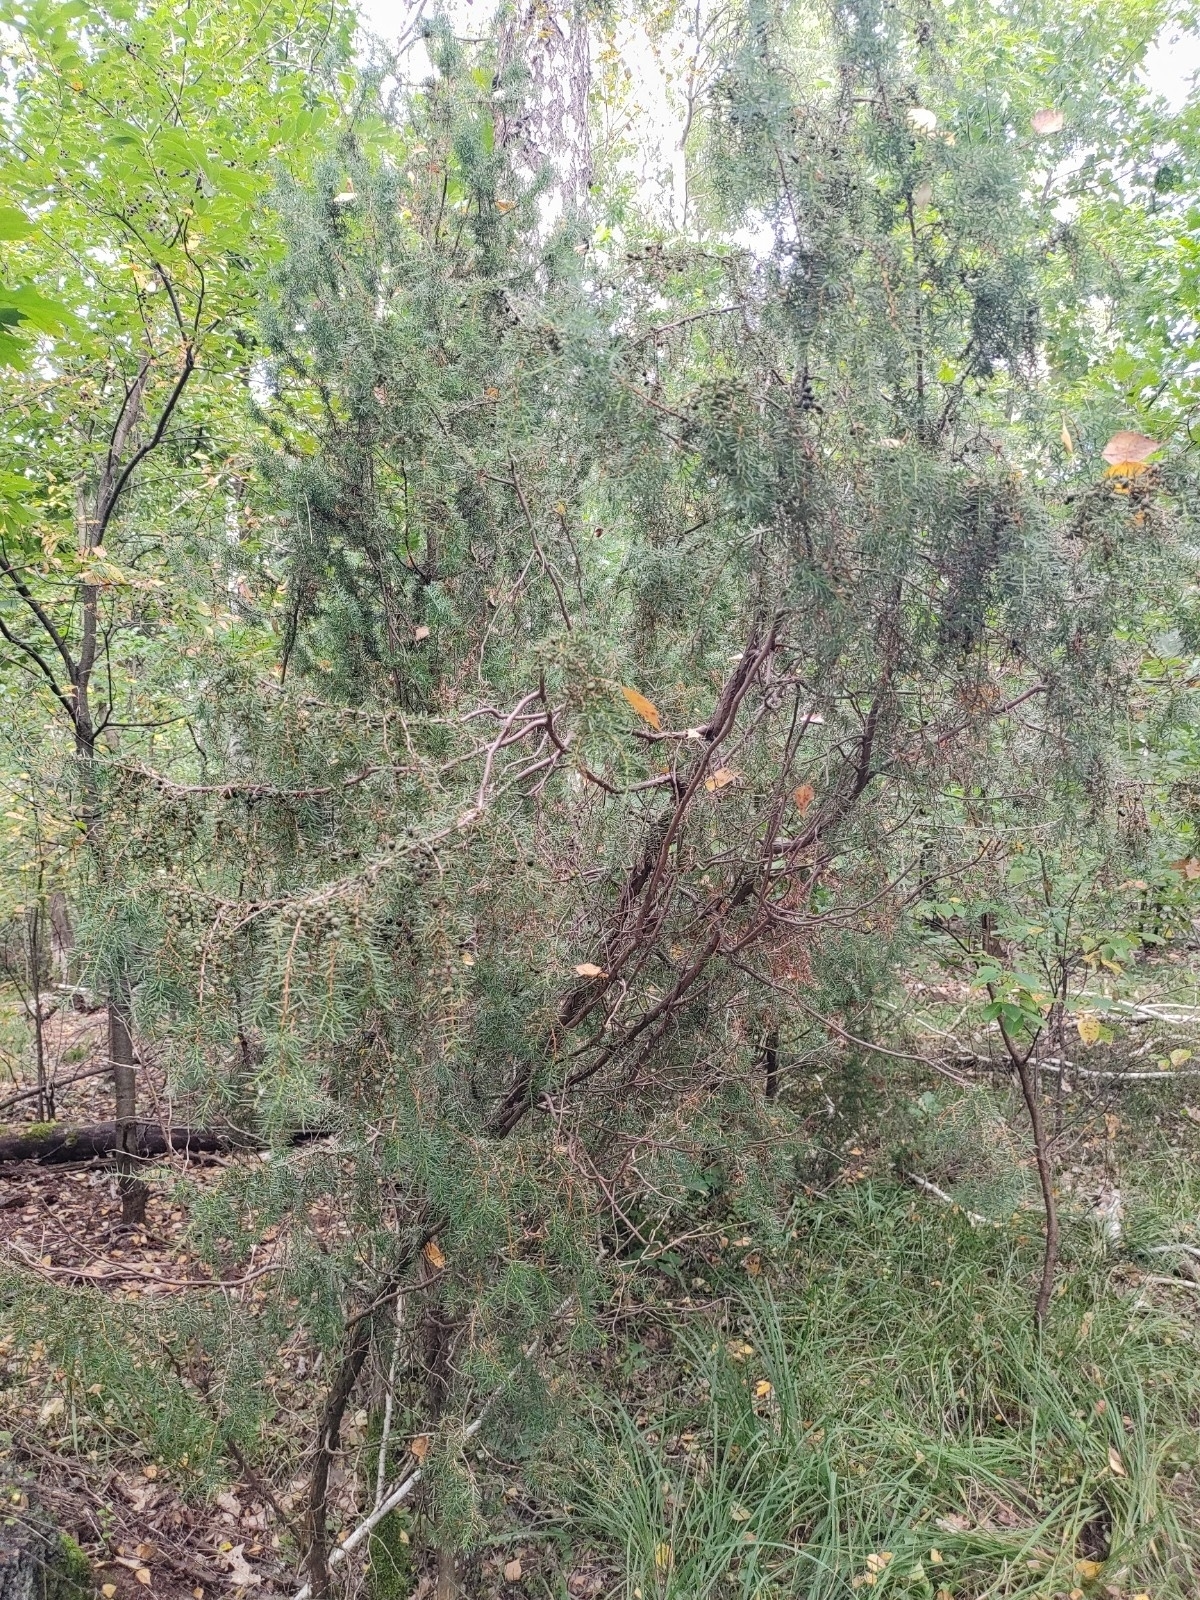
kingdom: Plantae
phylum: Tracheophyta
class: Pinopsida
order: Pinales
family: Cupressaceae
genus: Juniperus
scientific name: Juniperus communis
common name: Common juniper
